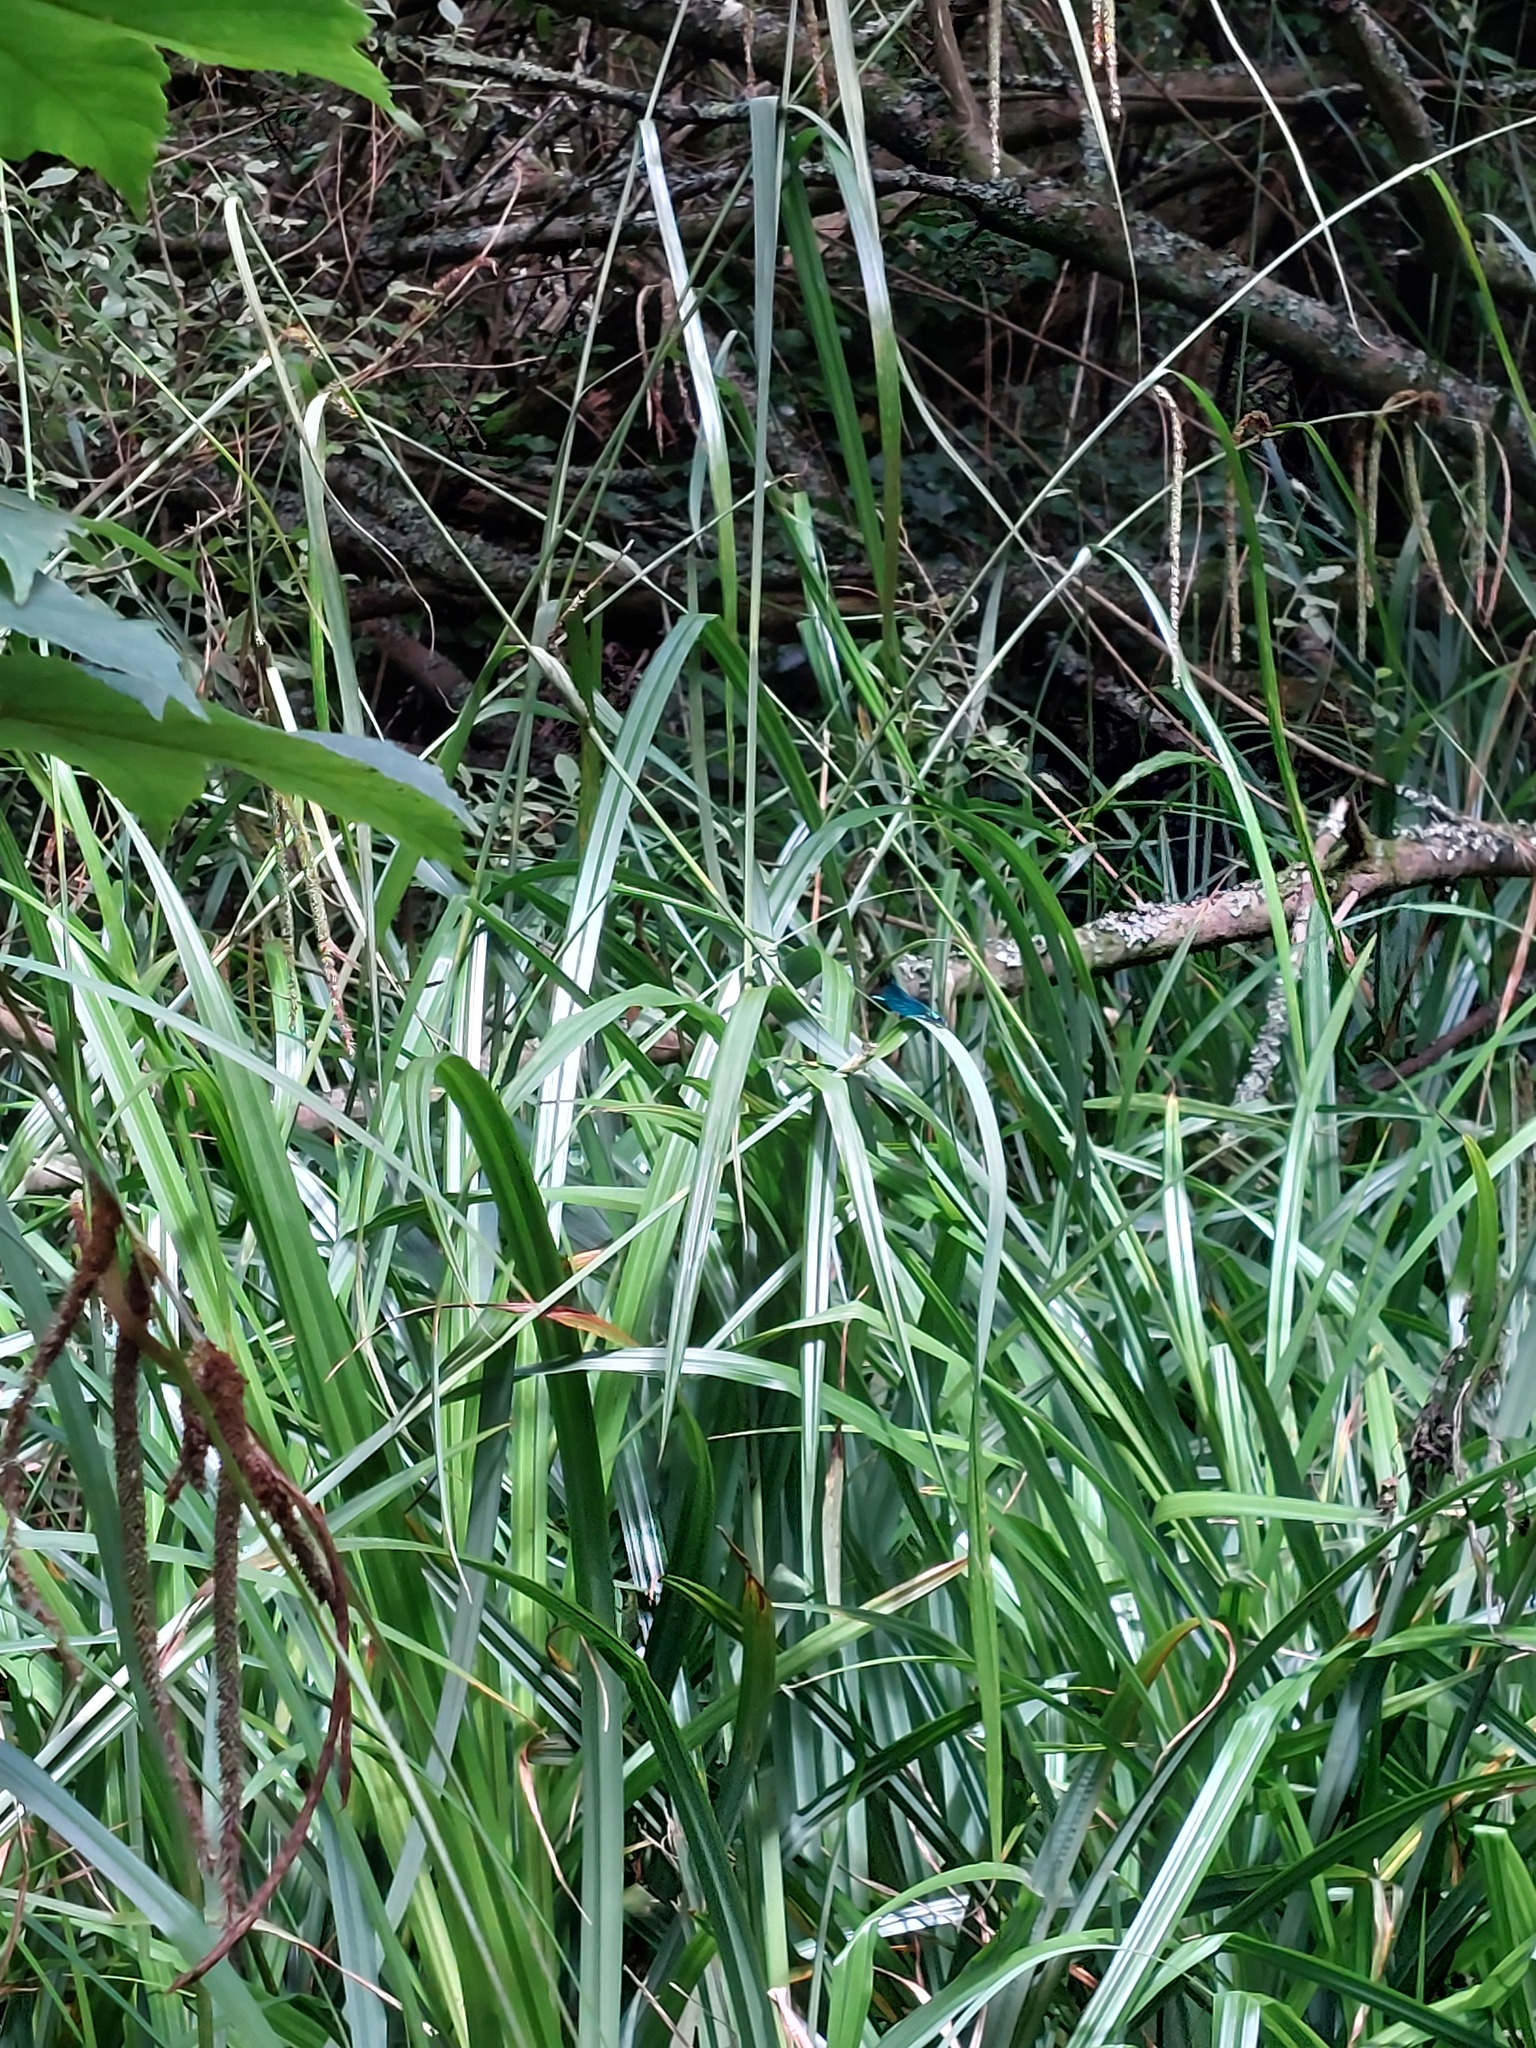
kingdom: Animalia
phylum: Arthropoda
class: Insecta
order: Odonata
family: Calopterygidae
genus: Calopteryx
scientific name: Calopteryx virgo
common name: Beautiful demoiselle
